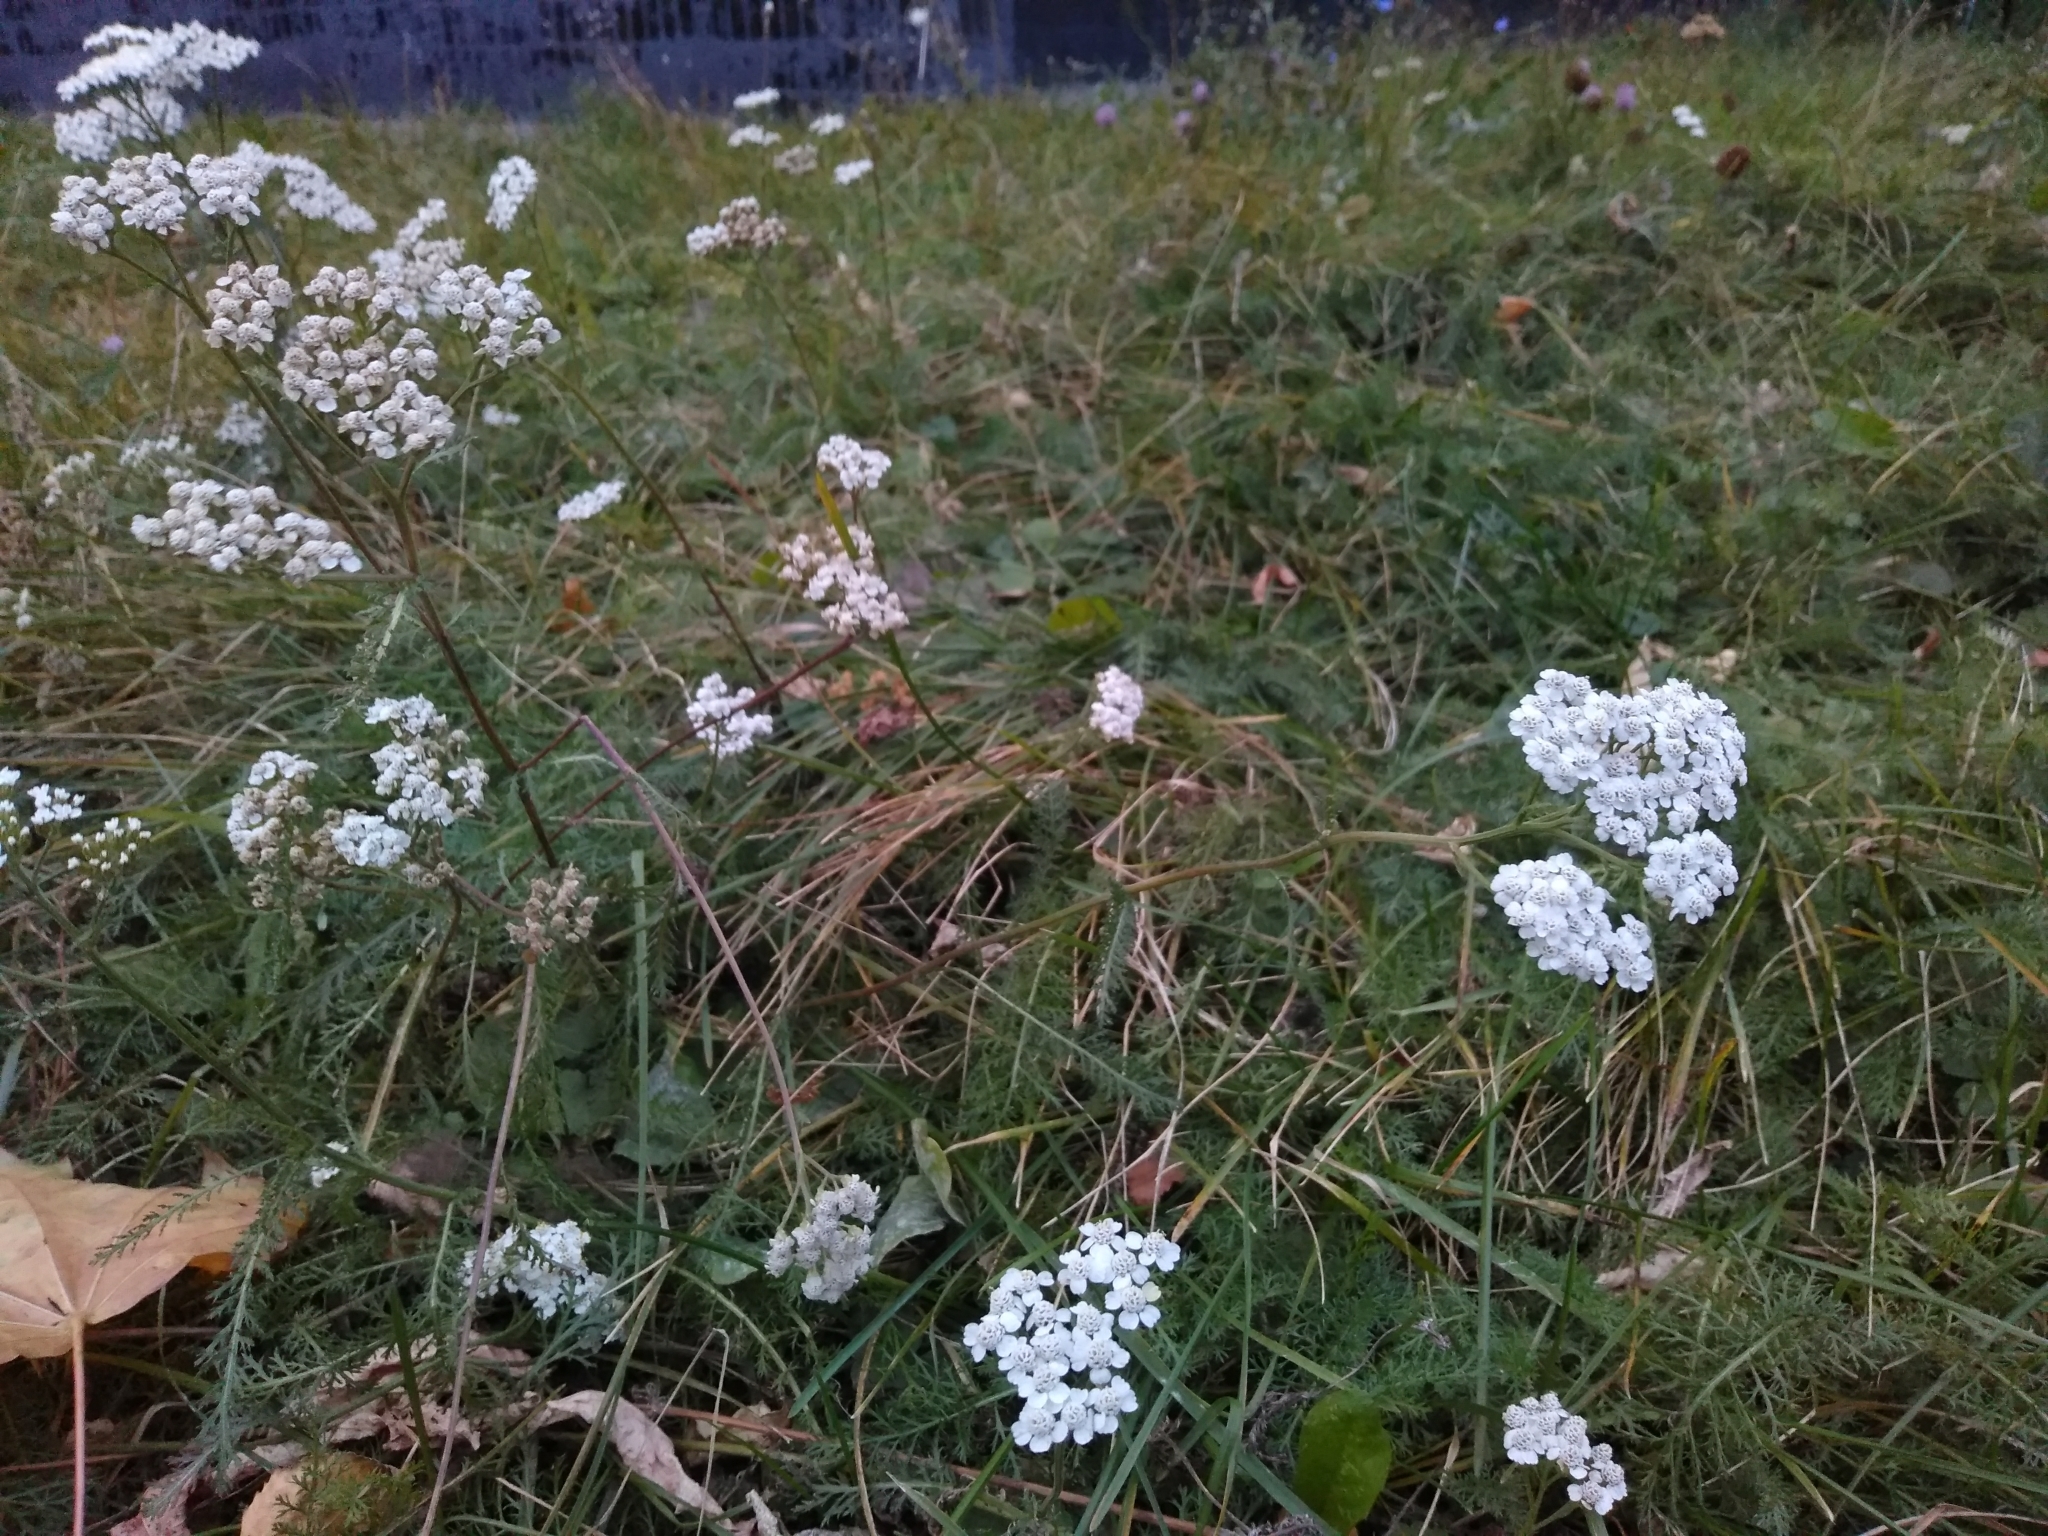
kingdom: Plantae
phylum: Tracheophyta
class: Magnoliopsida
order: Asterales
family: Asteraceae
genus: Achillea
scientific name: Achillea millefolium
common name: Yarrow
